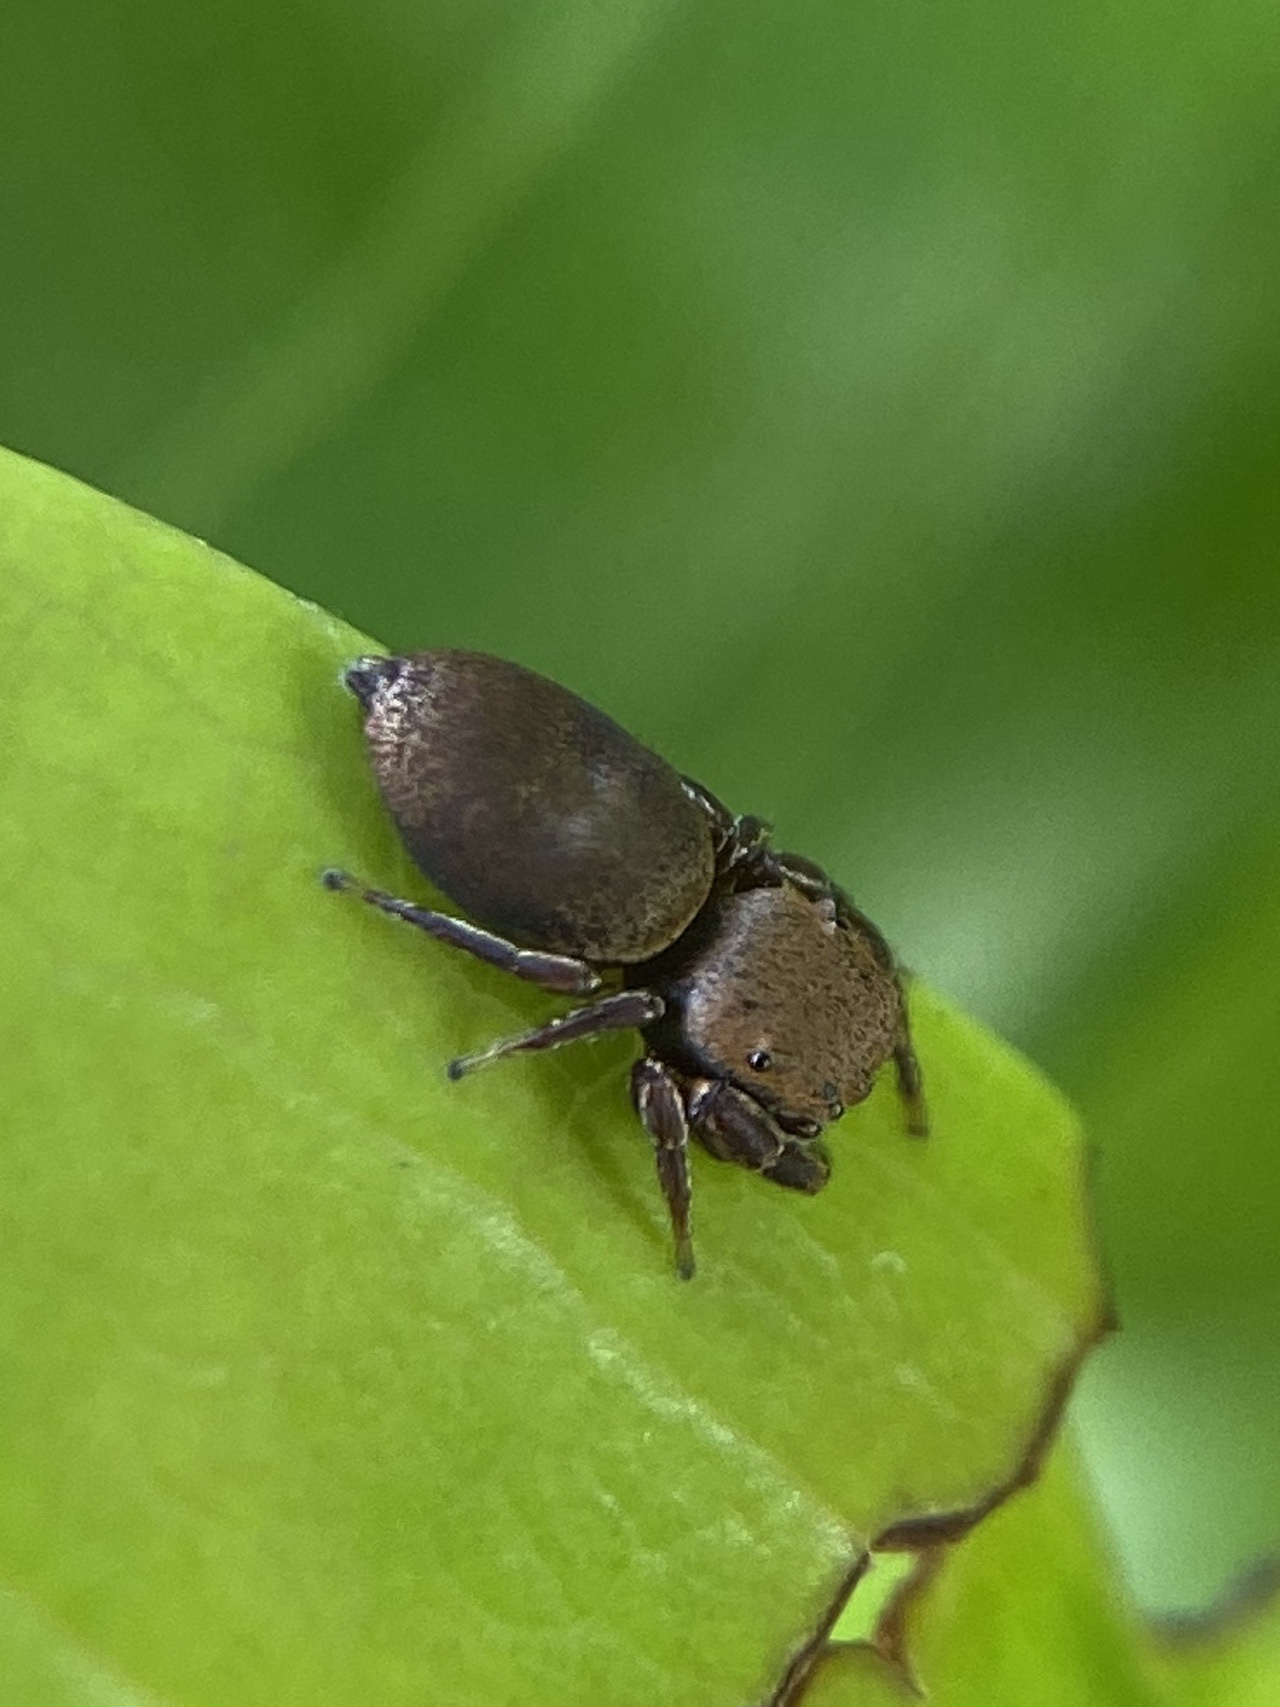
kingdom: Animalia
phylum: Arthropoda
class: Arachnida
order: Araneae
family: Salticidae
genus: Beata
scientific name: Beata wickhami
